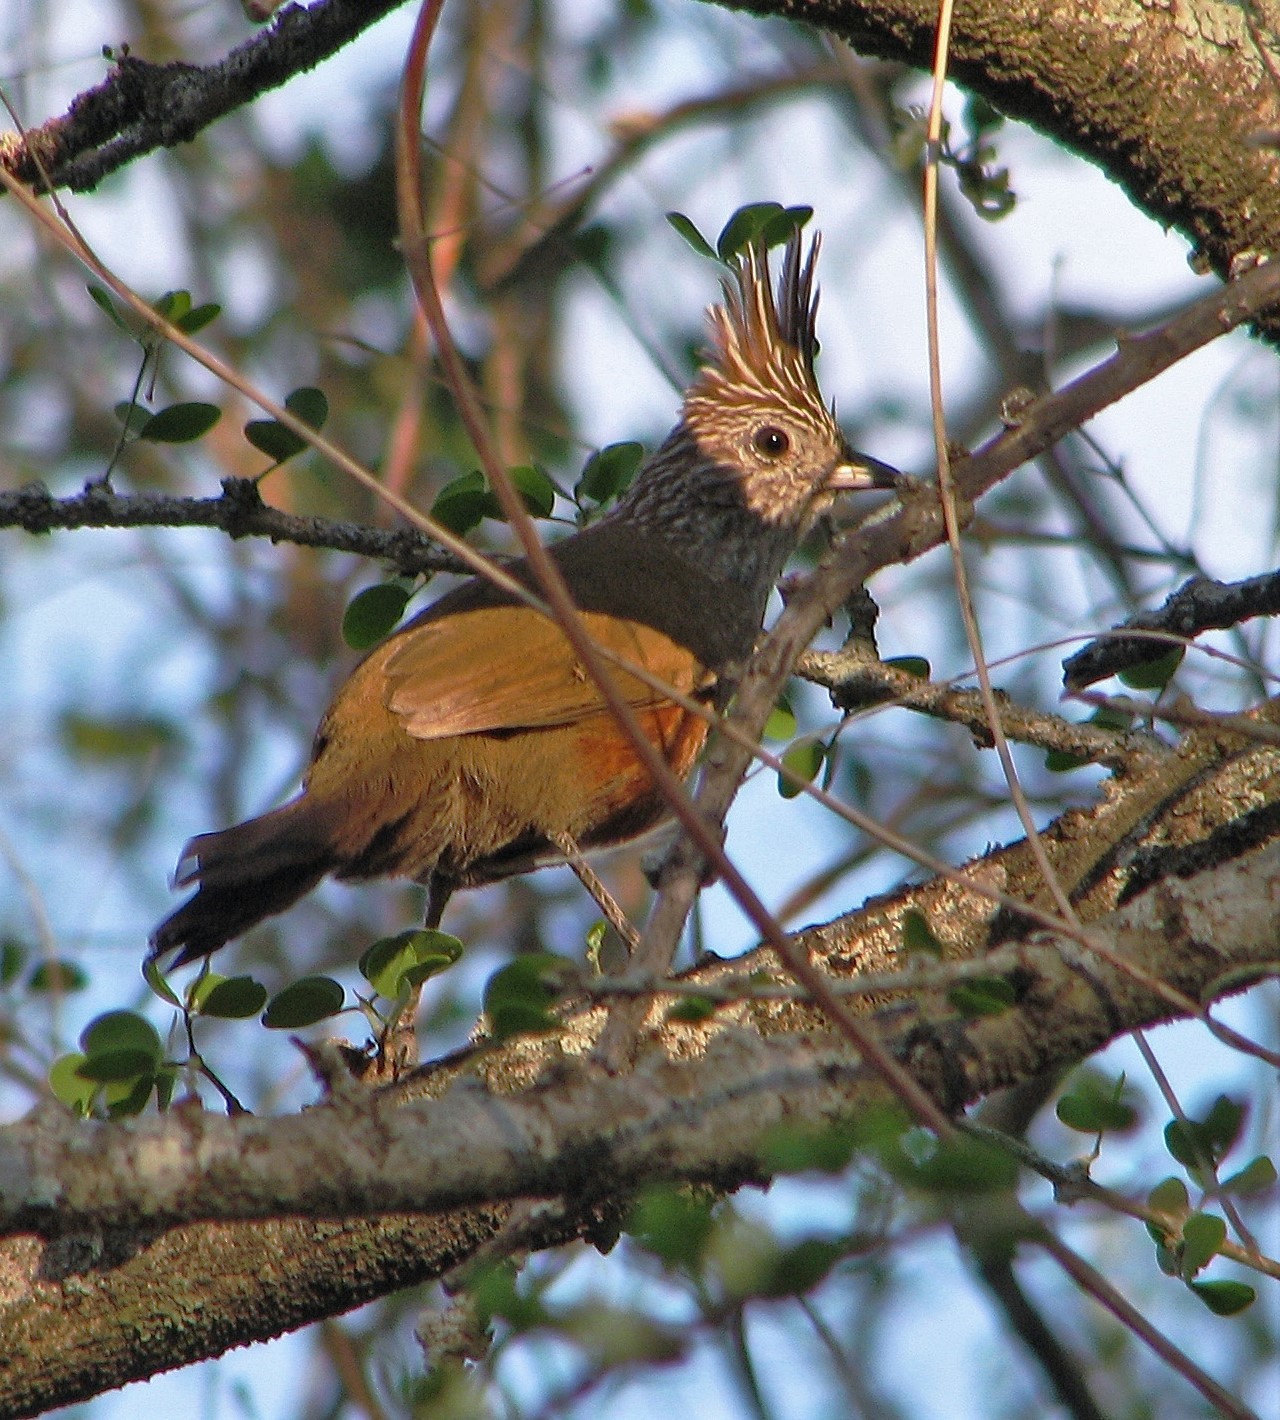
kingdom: Animalia
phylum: Chordata
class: Aves
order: Passeriformes
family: Rhinocryptidae
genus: Rhinocrypta
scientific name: Rhinocrypta lanceolata
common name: Crested gallito
